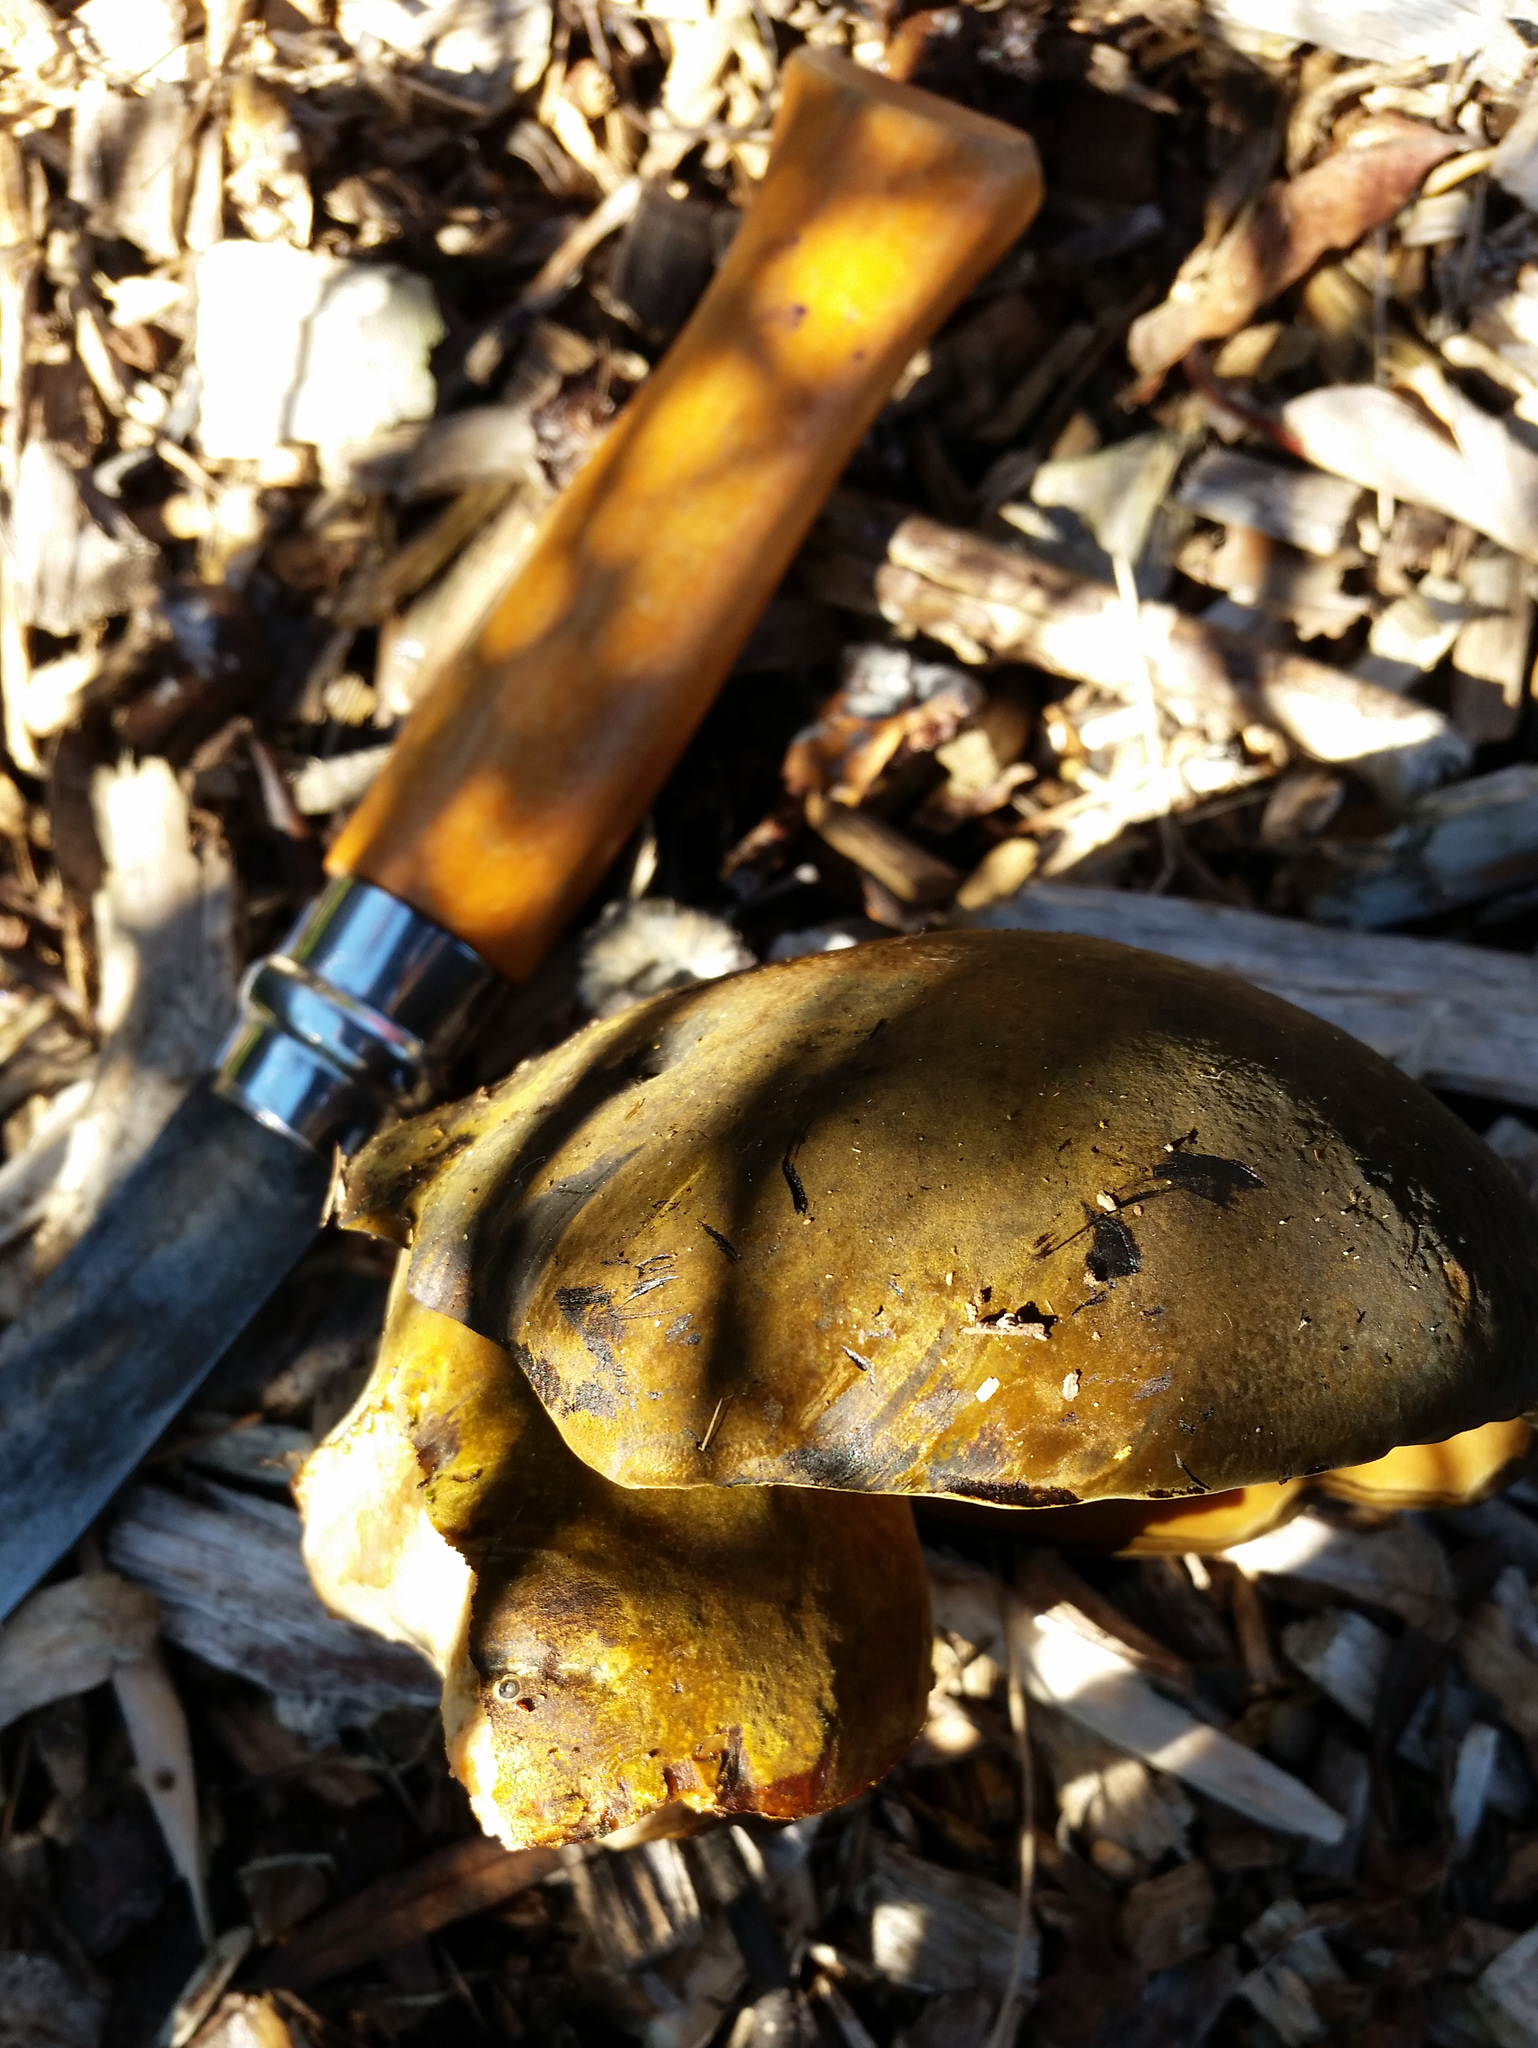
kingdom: Fungi
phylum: Basidiomycota
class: Agaricomycetes
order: Boletales
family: Boletinellaceae
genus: Phlebopus
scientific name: Phlebopus marginatus
